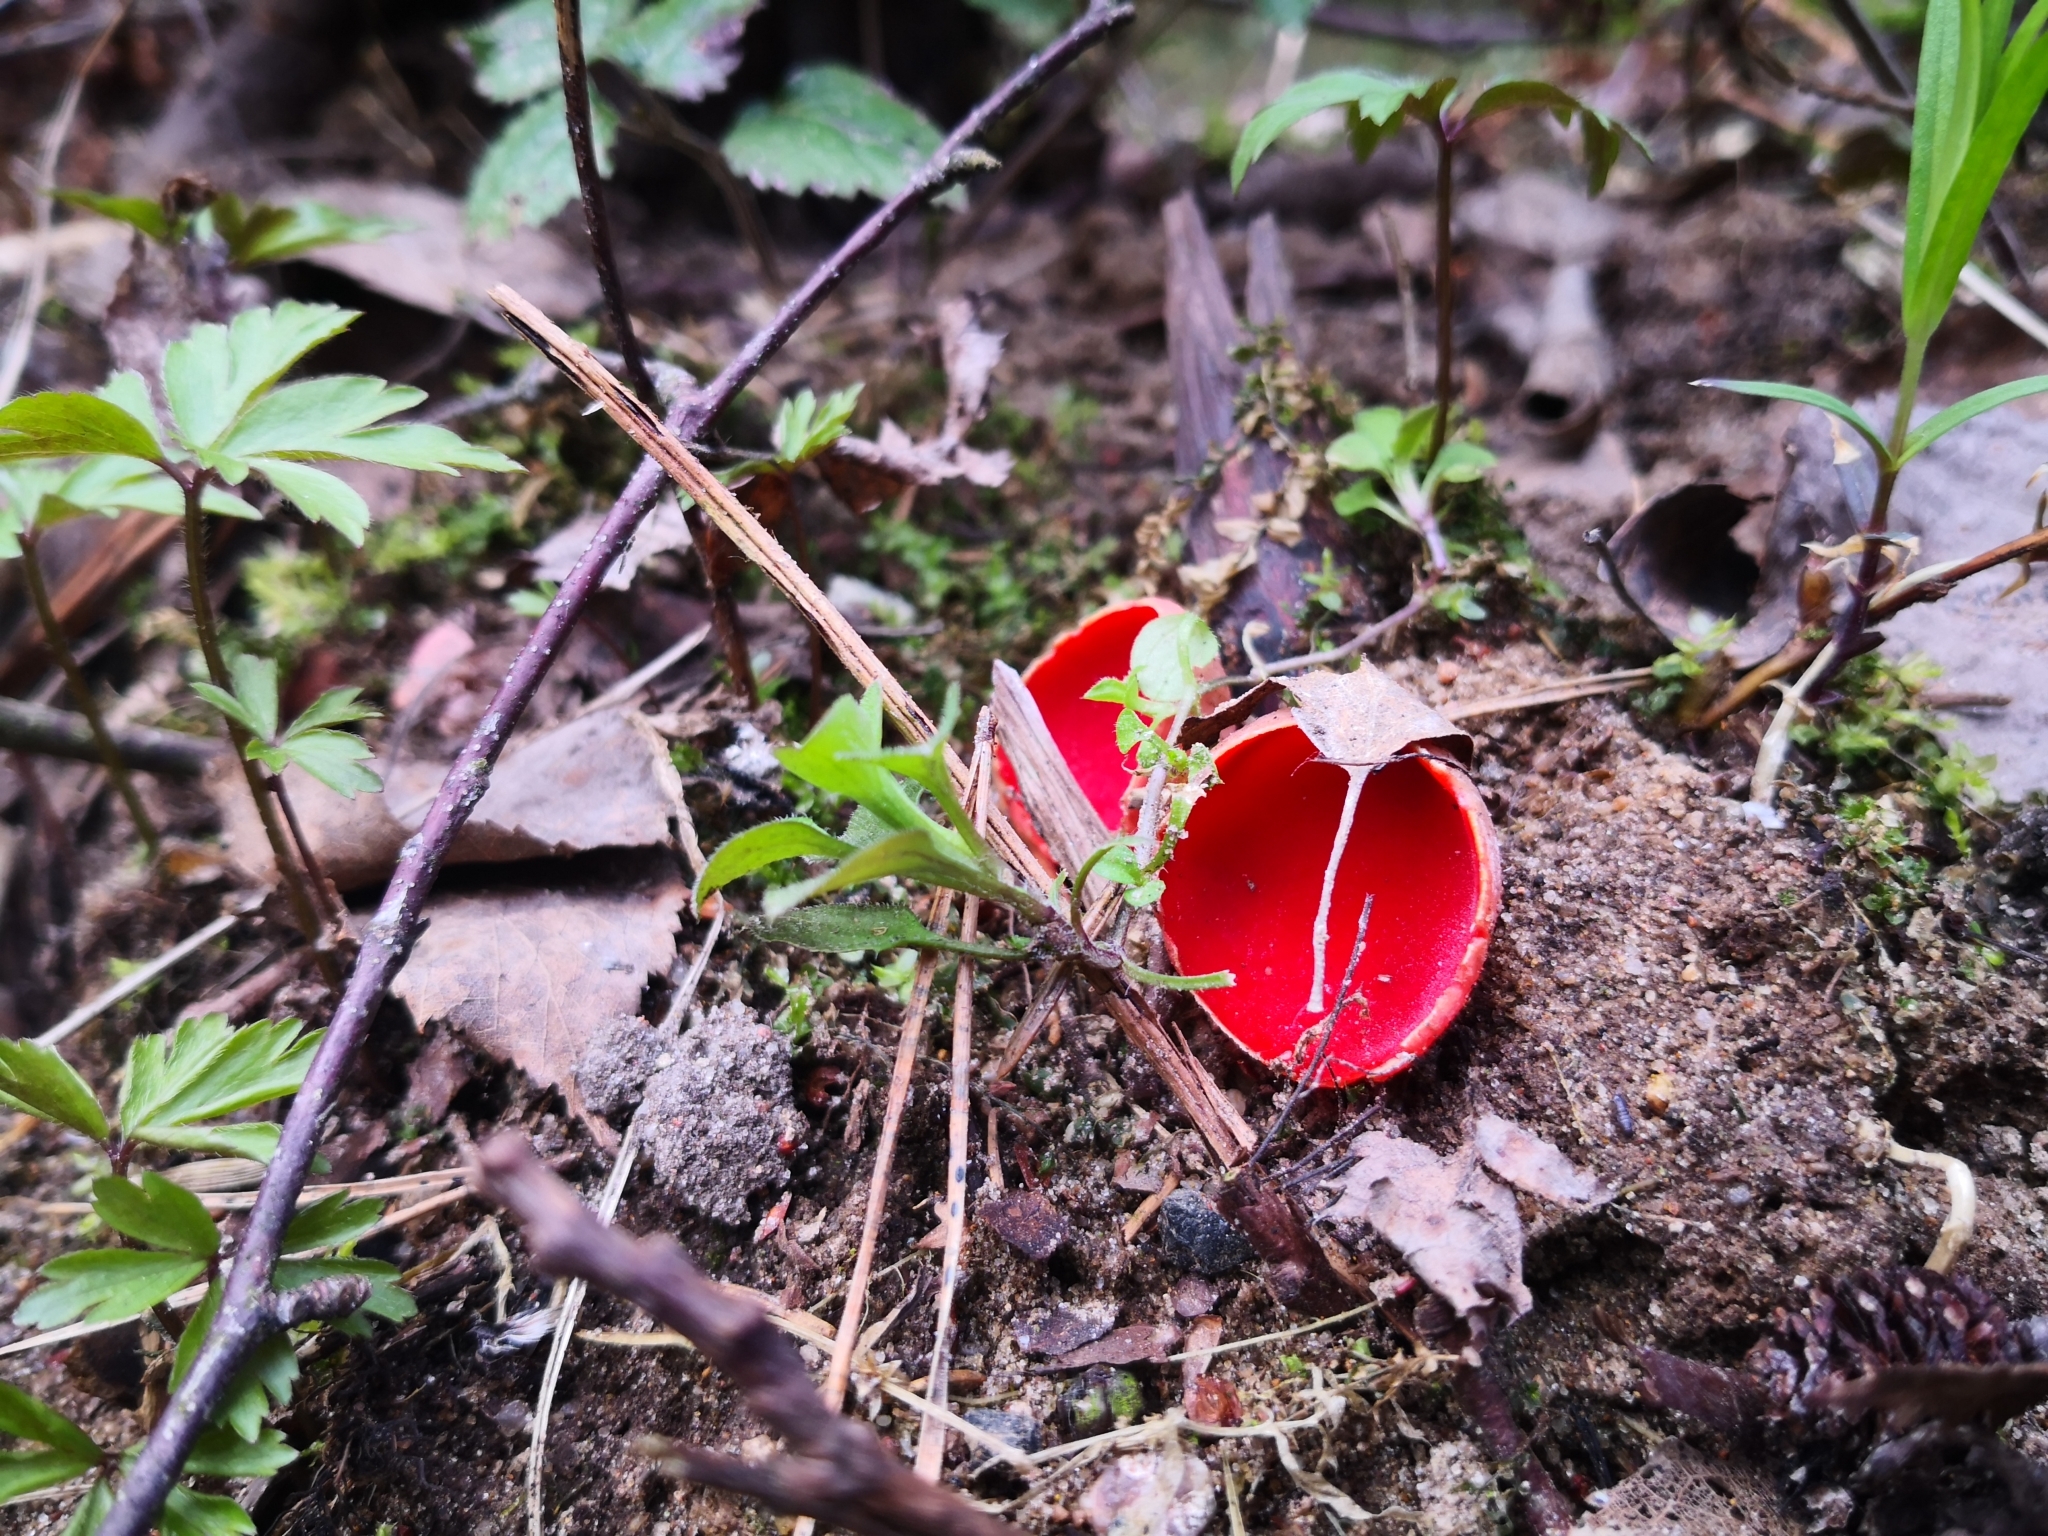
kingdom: Fungi
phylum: Ascomycota
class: Pezizomycetes
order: Pezizales
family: Sarcoscyphaceae
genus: Sarcoscypha
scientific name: Sarcoscypha
